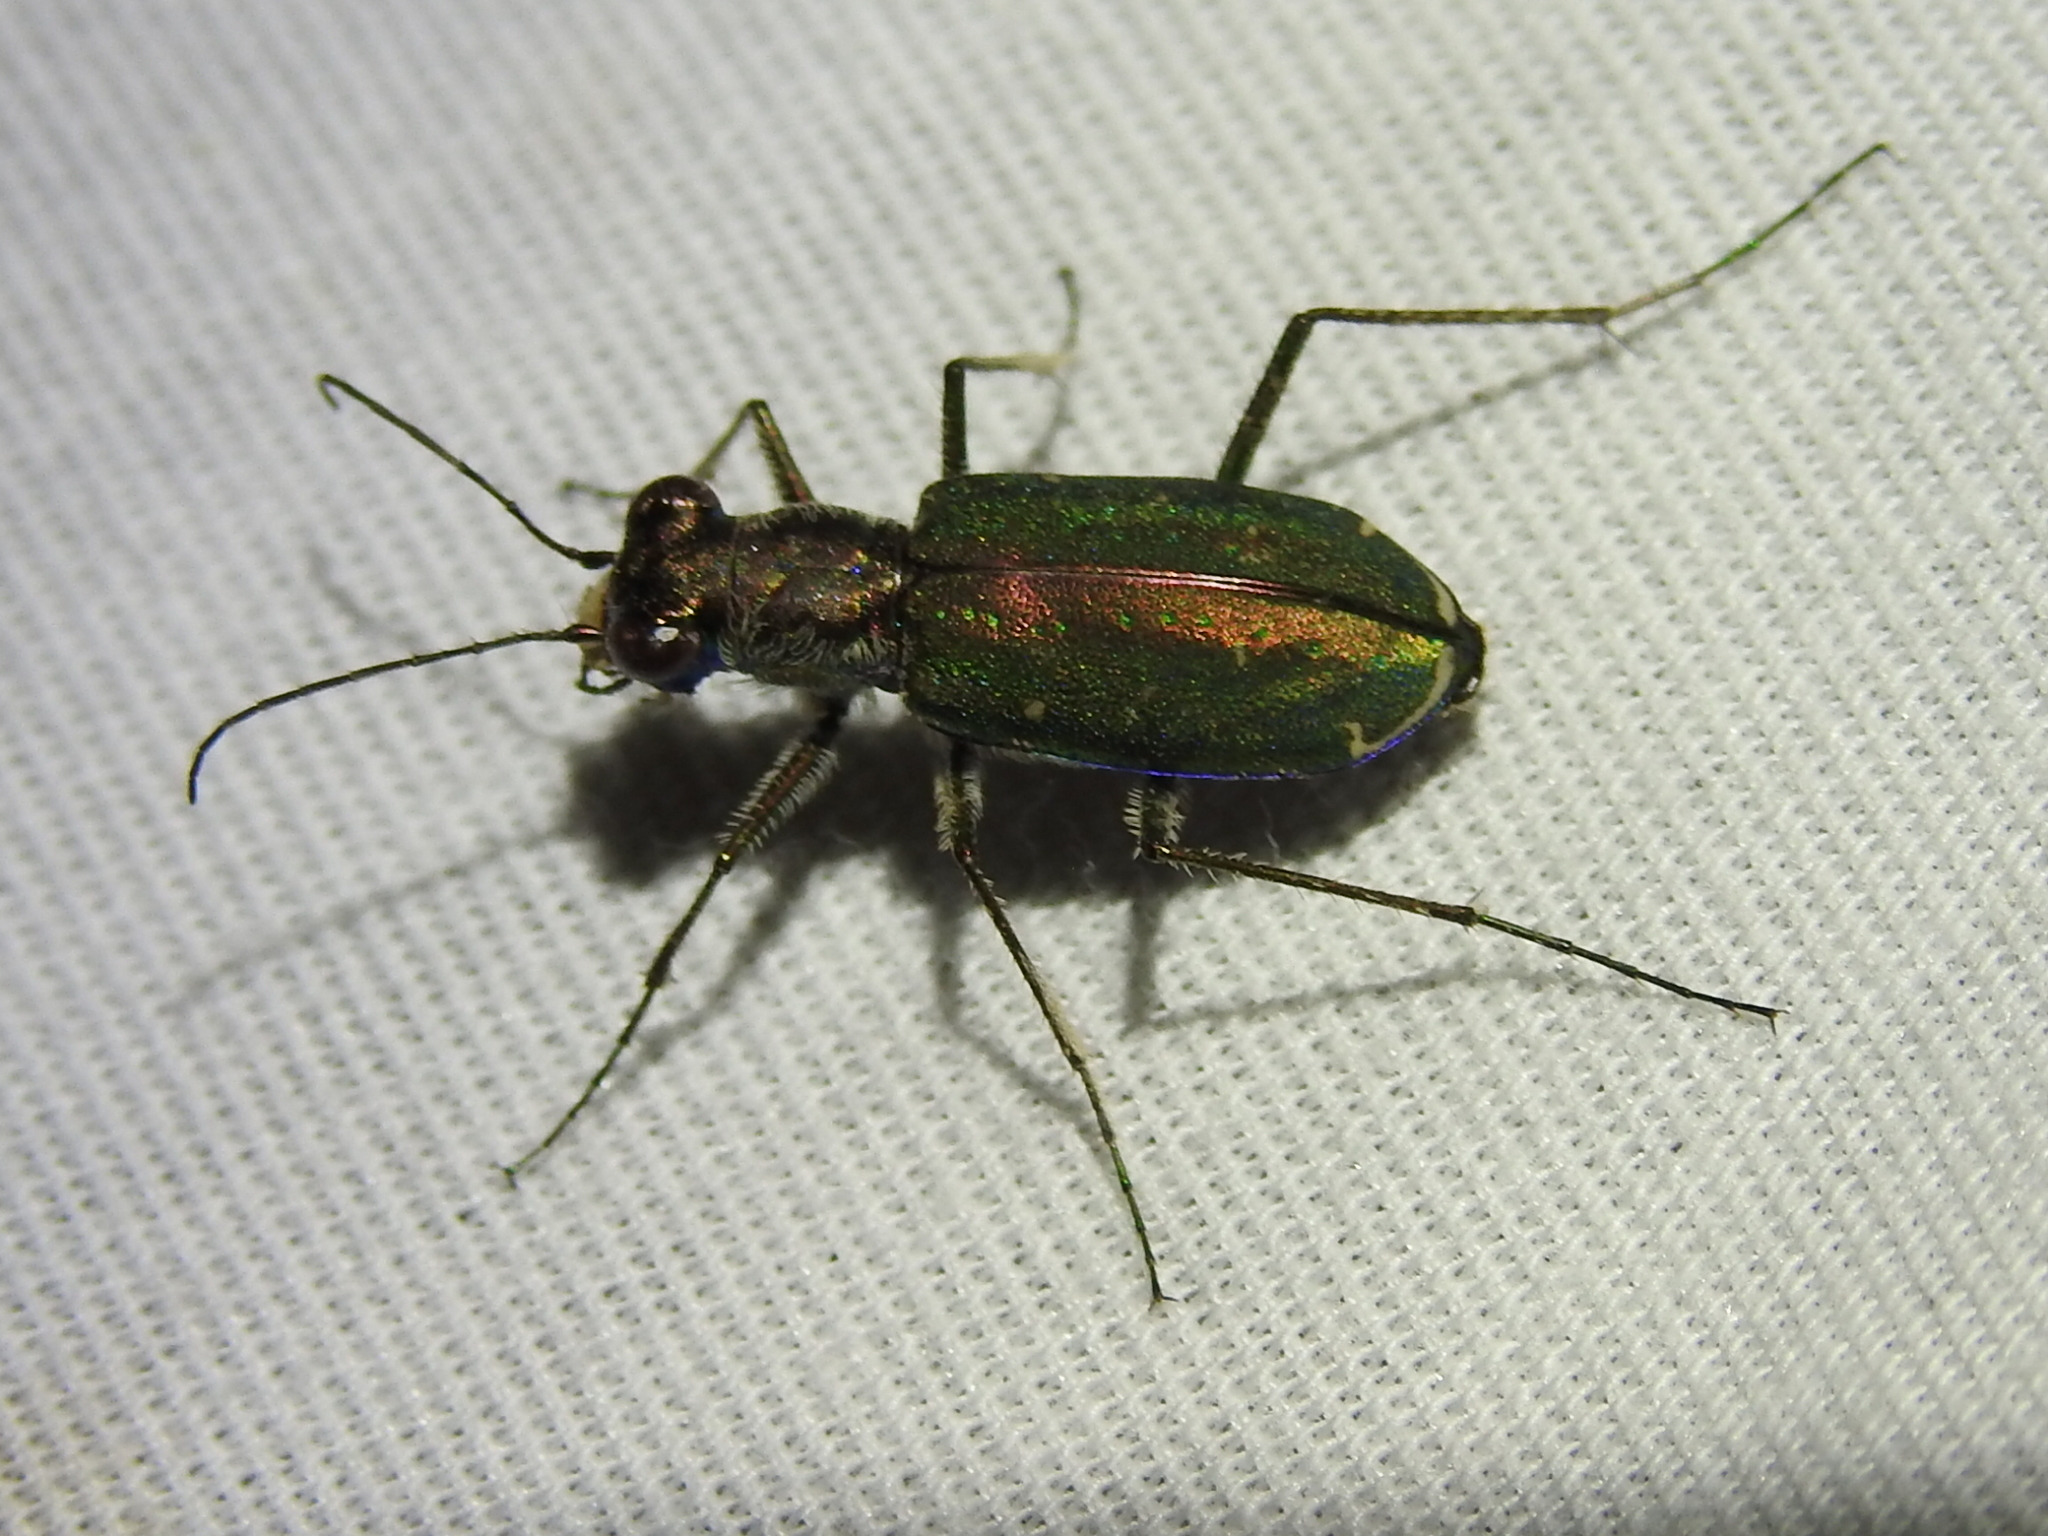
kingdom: Animalia
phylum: Arthropoda
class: Insecta
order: Coleoptera
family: Carabidae
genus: Cicindela
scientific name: Cicindela punctulata
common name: Punctured tiger beetle
